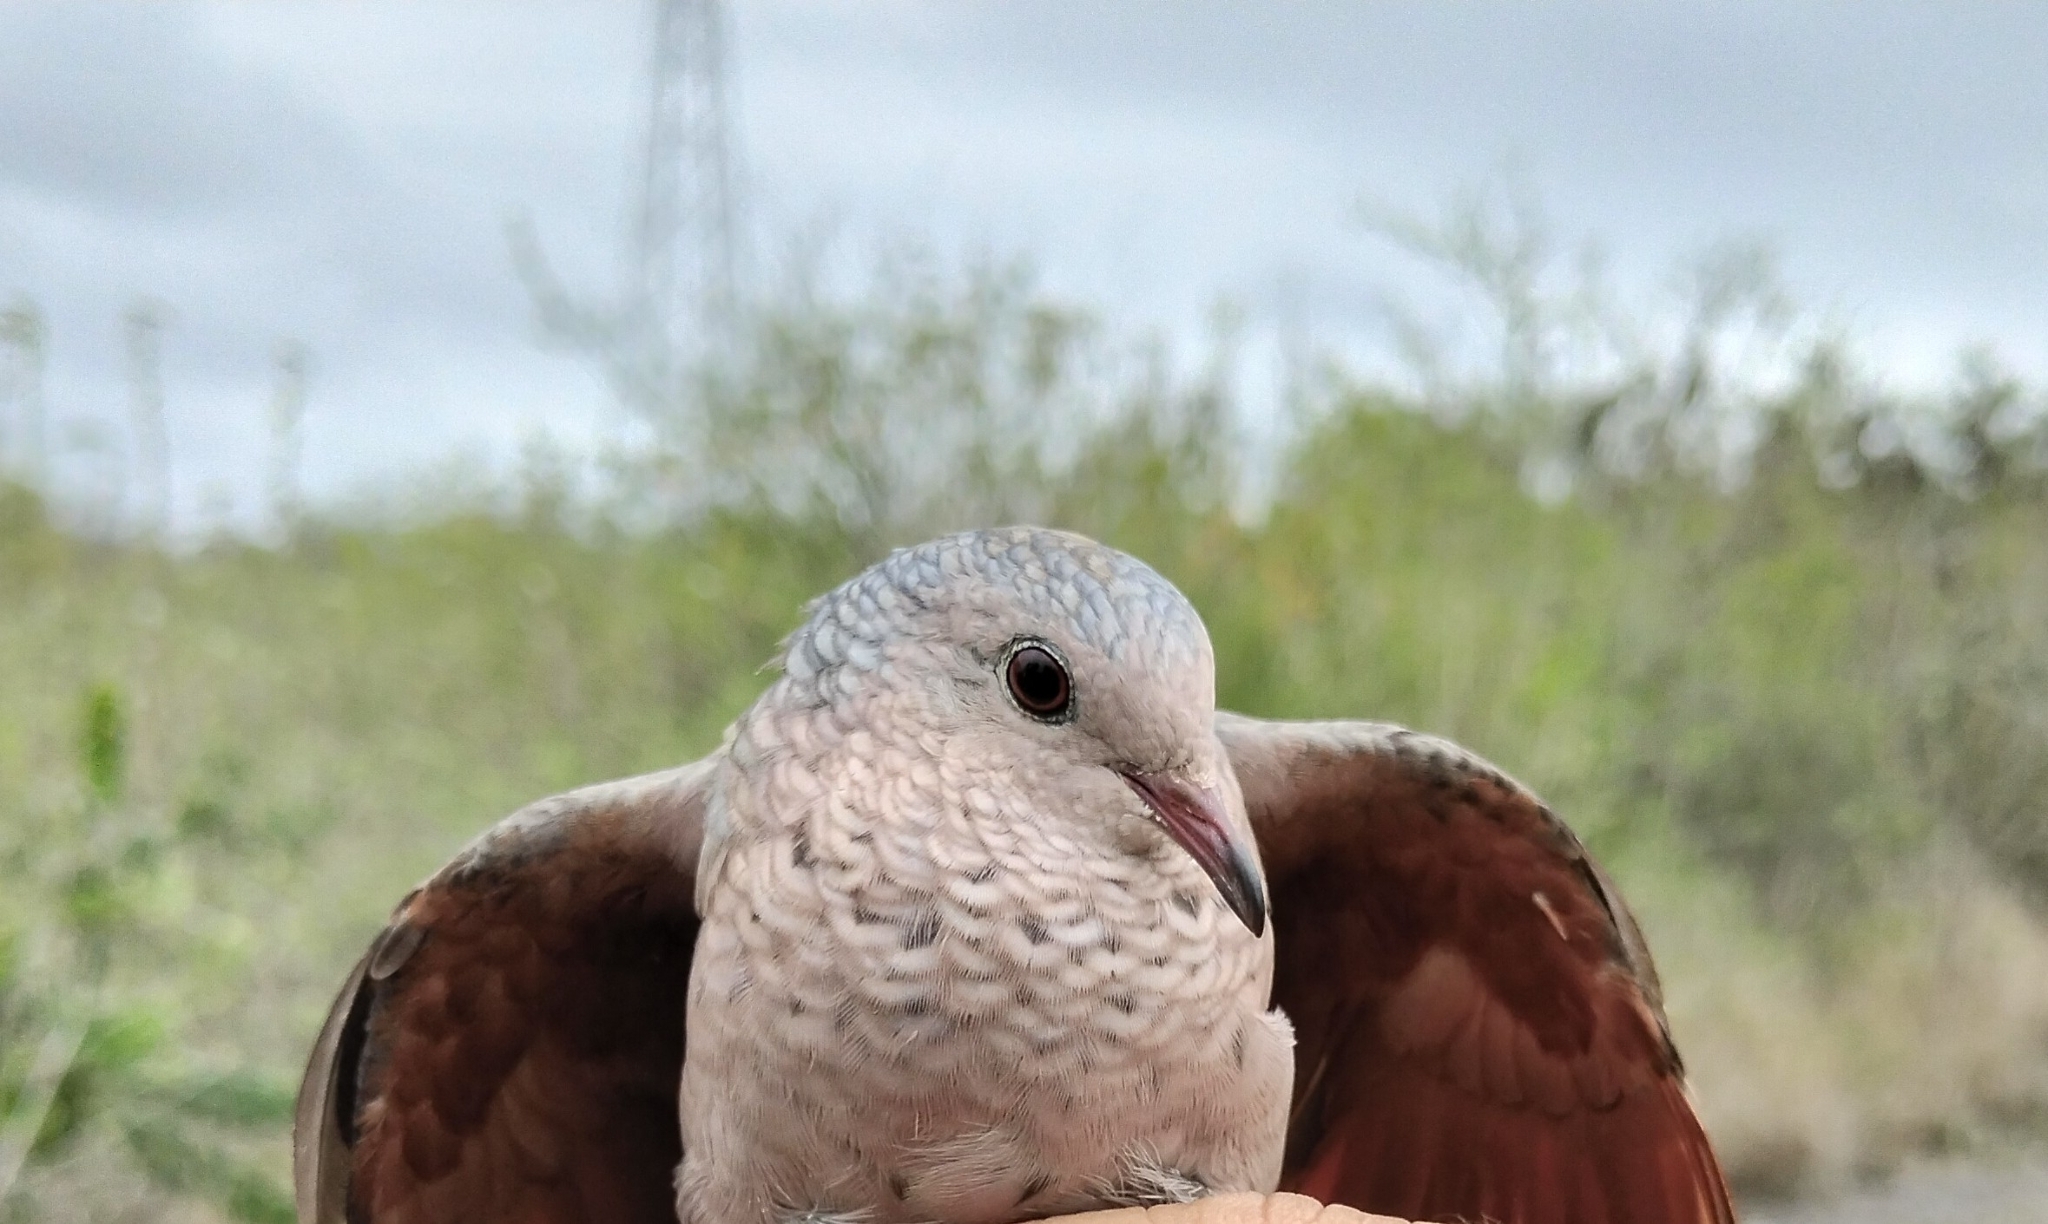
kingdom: Animalia
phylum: Chordata
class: Aves
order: Columbiformes
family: Columbidae
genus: Columbina
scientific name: Columbina passerina
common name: Common ground-dove
